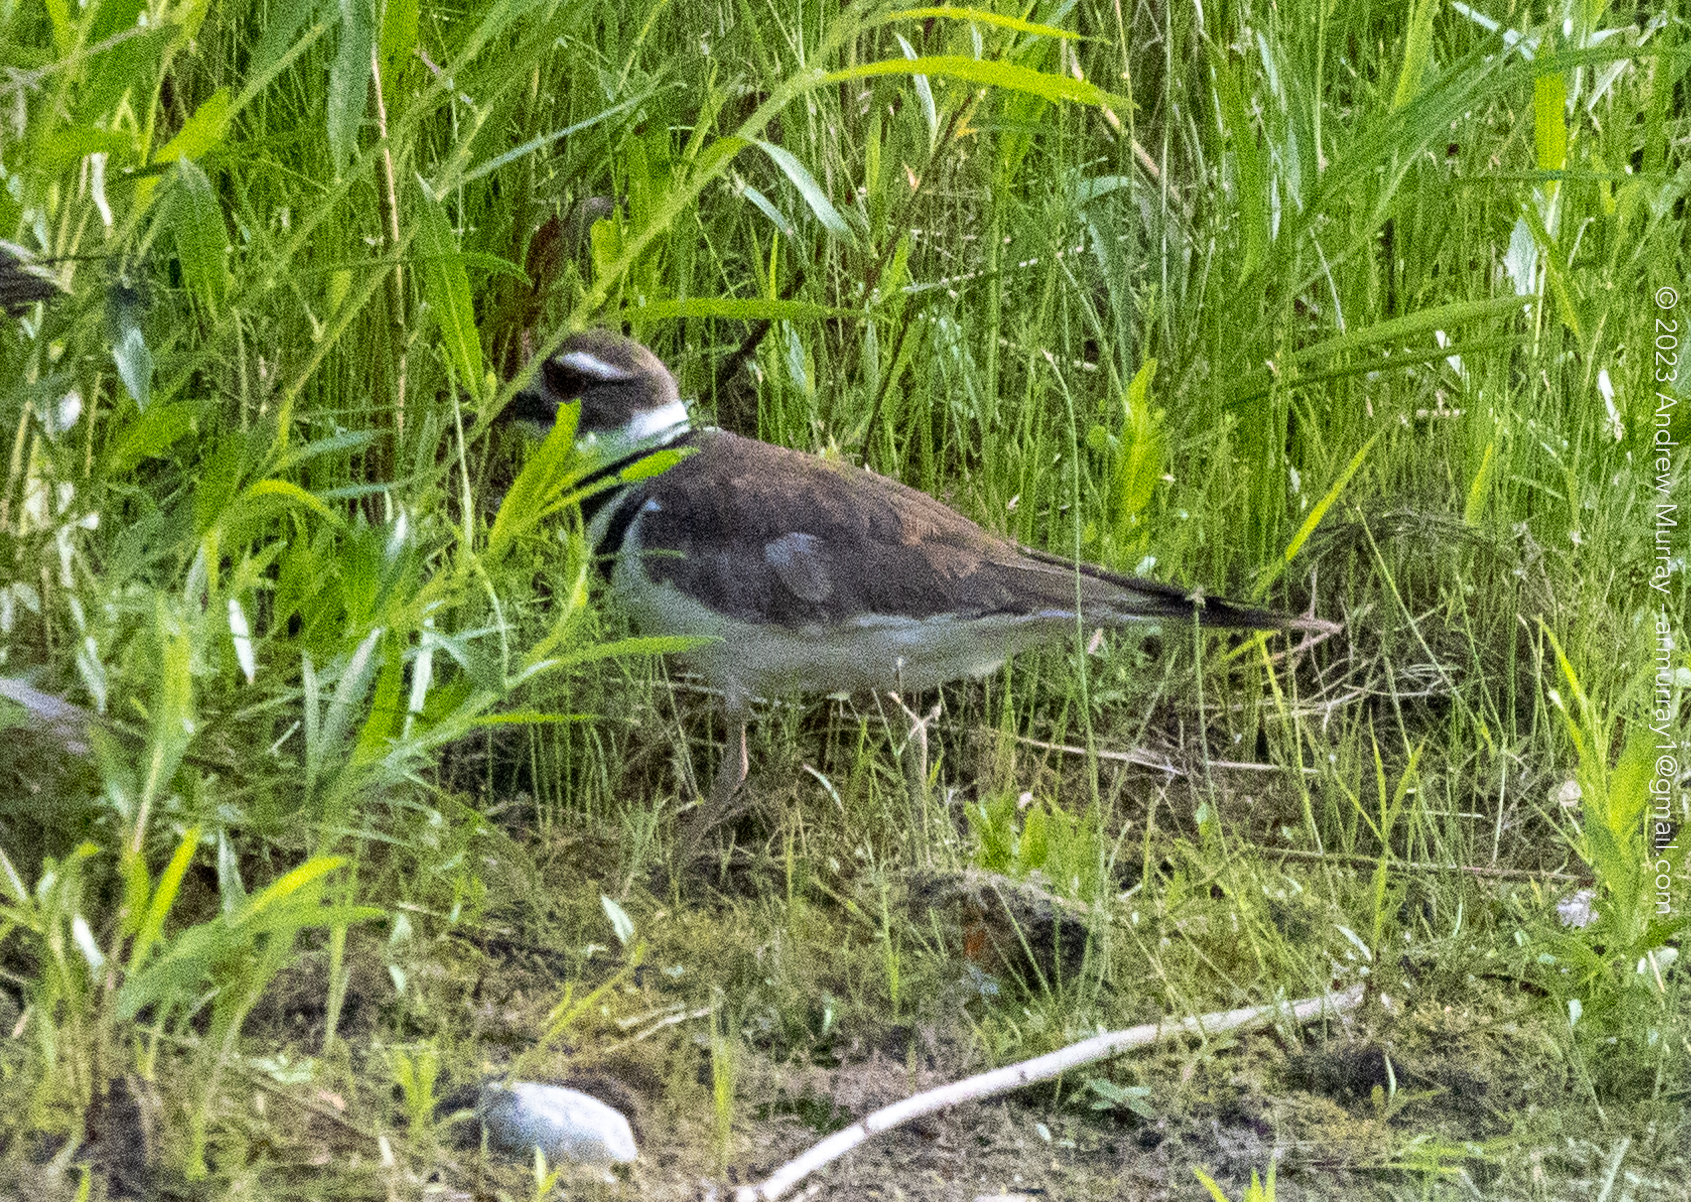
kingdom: Animalia
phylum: Chordata
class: Aves
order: Charadriiformes
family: Charadriidae
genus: Charadrius
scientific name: Charadrius vociferus
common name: Killdeer
